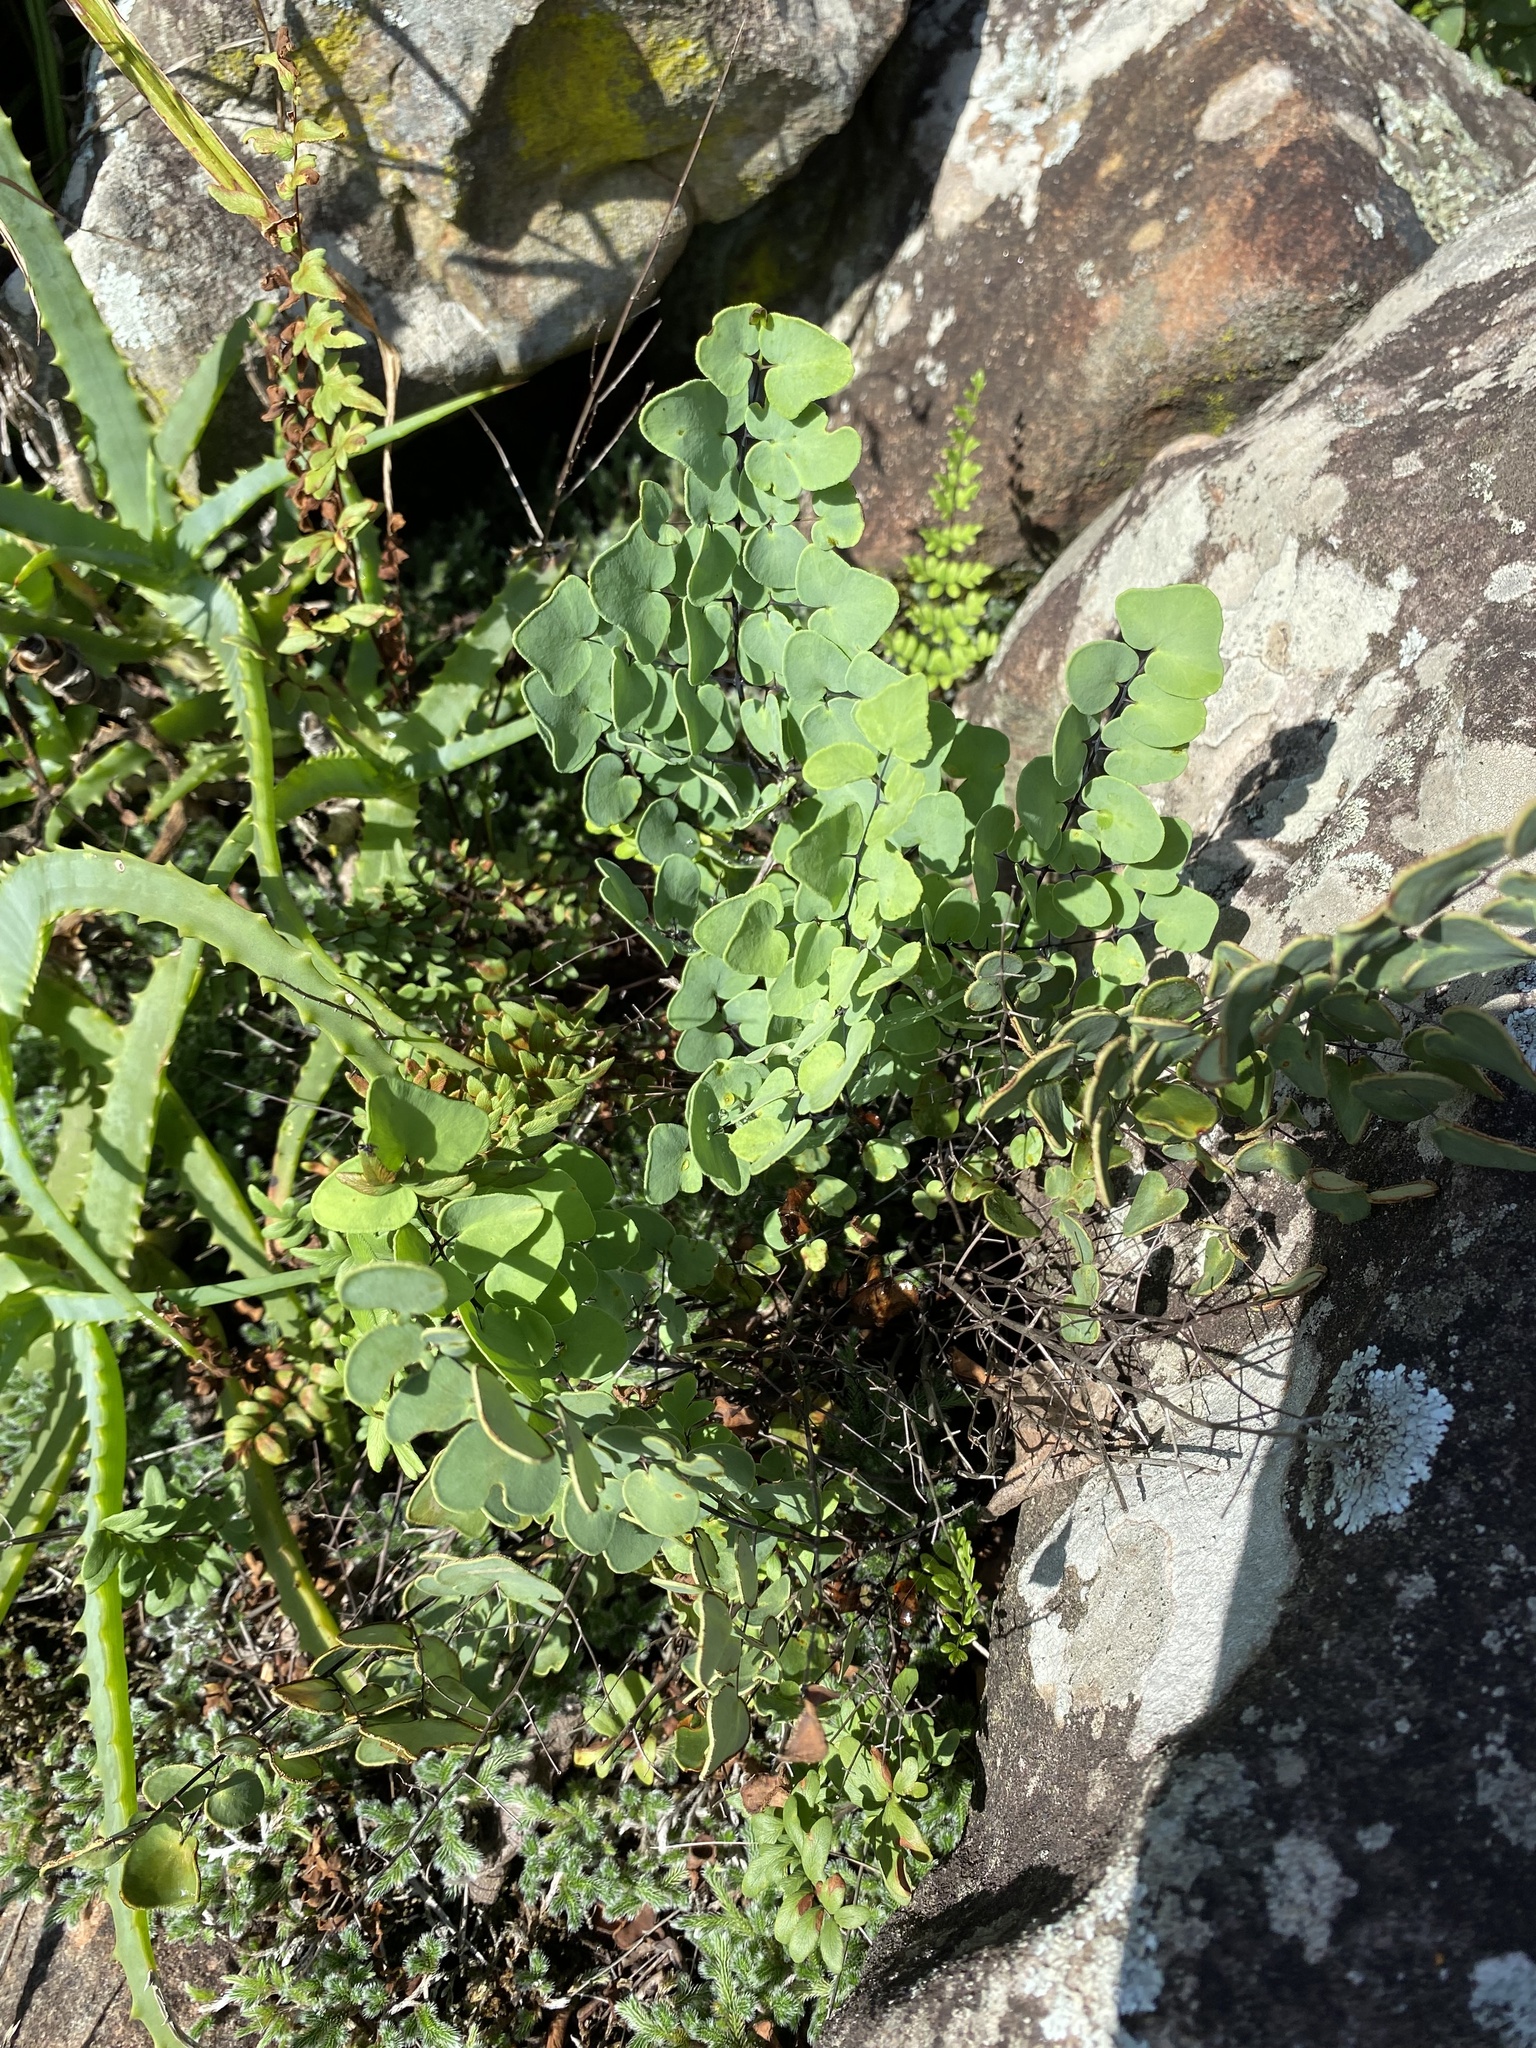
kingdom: Plantae
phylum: Tracheophyta
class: Polypodiopsida
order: Polypodiales
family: Pteridaceae
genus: Pellaea
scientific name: Pellaea calomelanos
